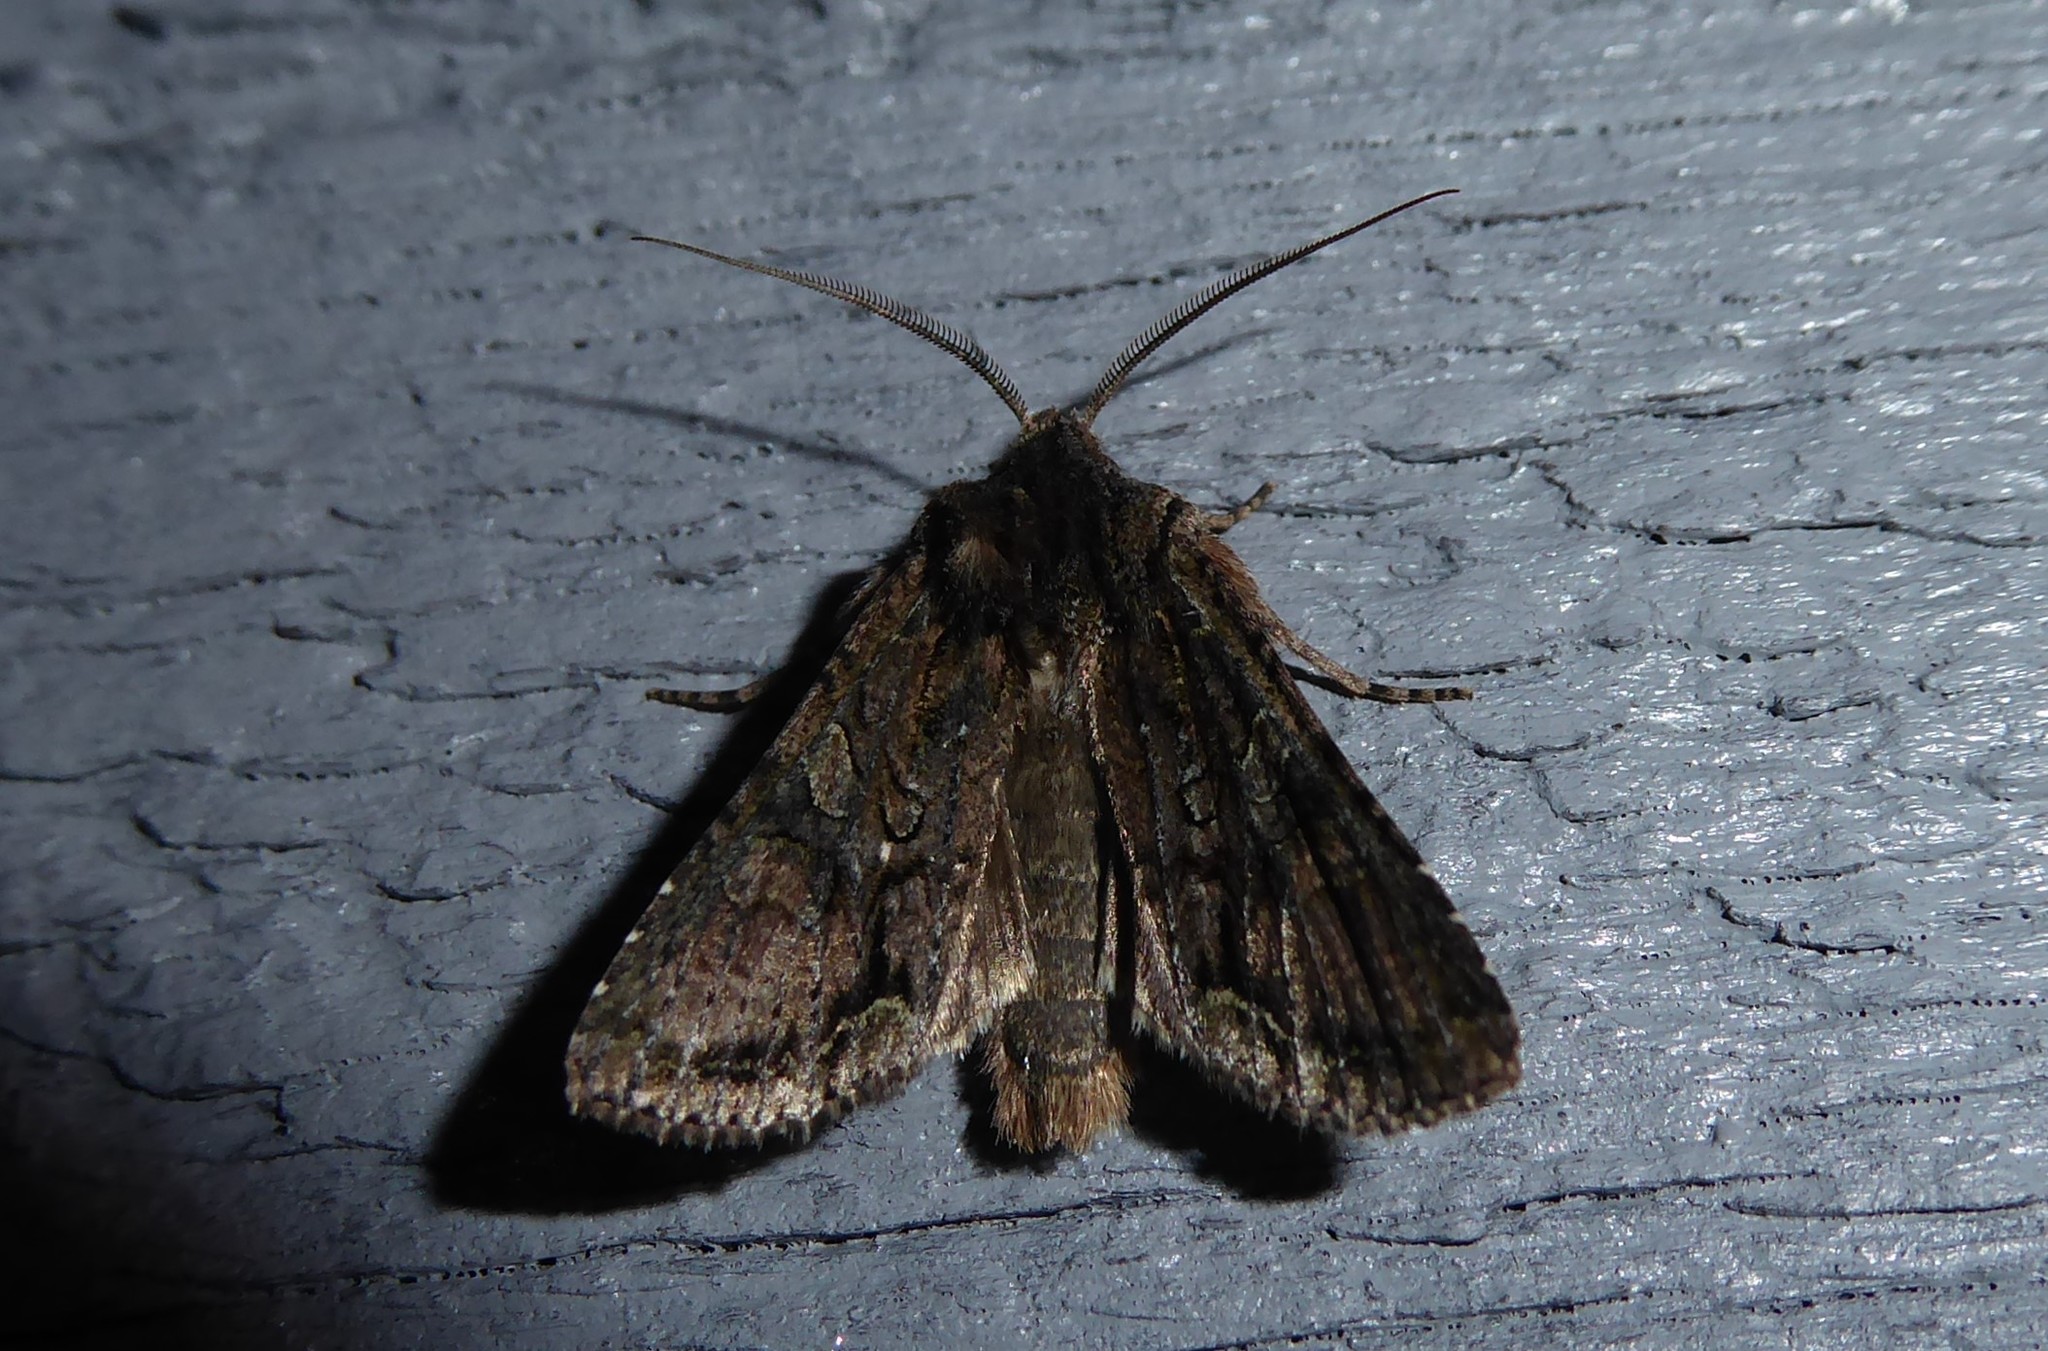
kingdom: Animalia
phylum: Arthropoda
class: Insecta
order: Lepidoptera
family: Noctuidae
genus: Ichneutica
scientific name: Ichneutica mutans
